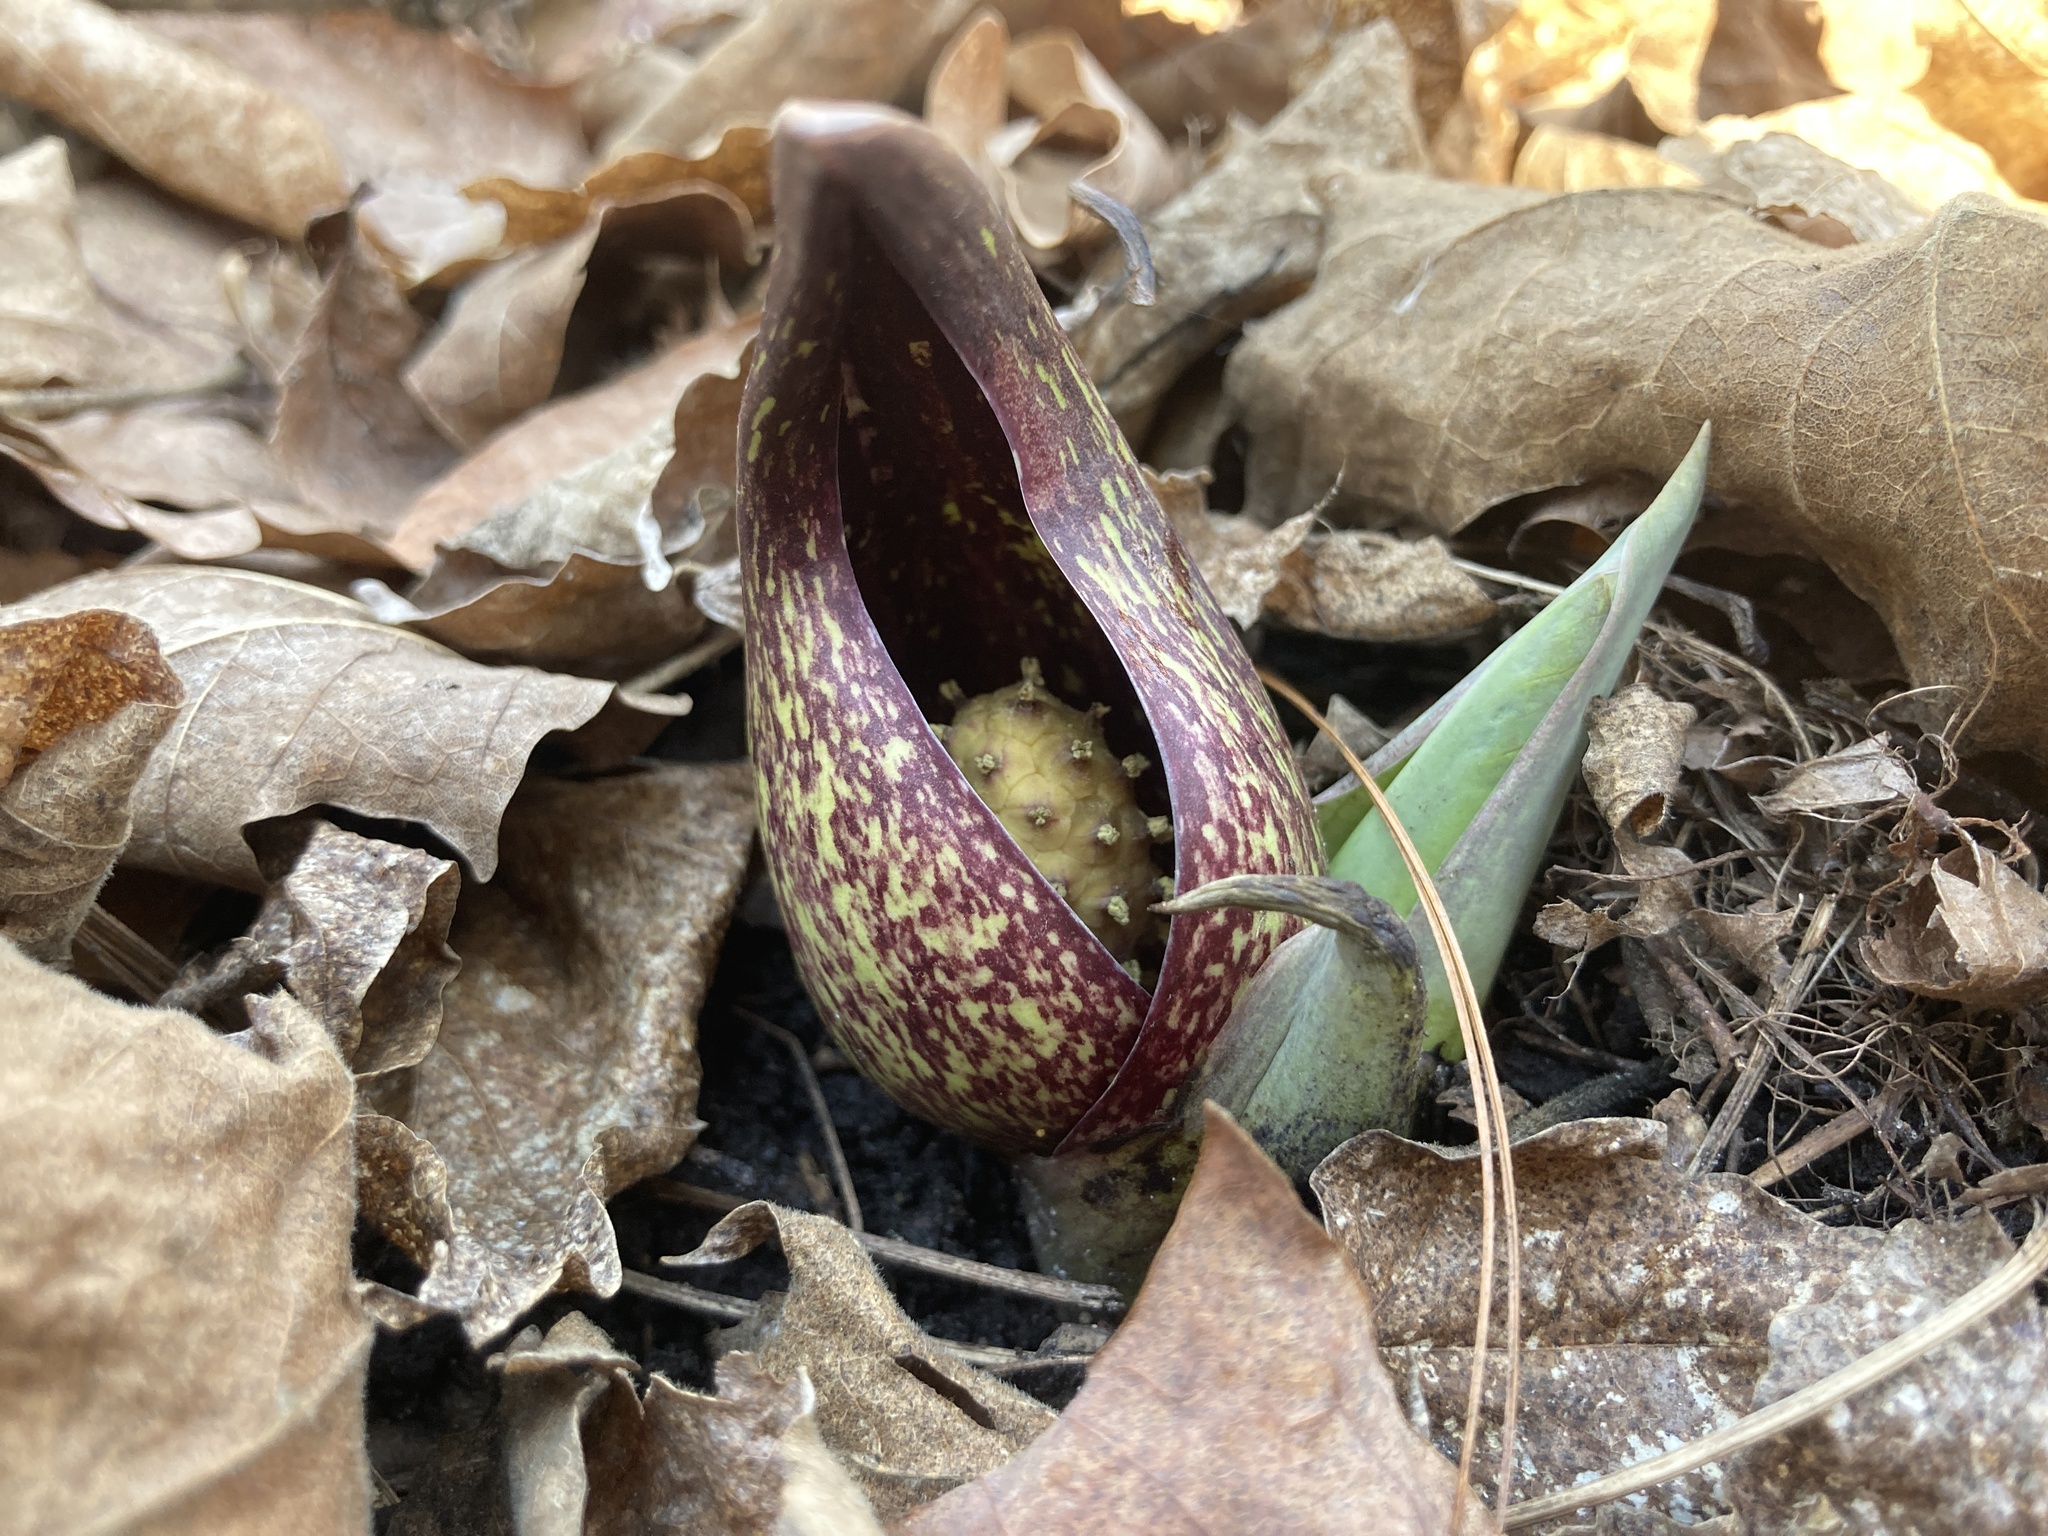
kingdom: Plantae
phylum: Tracheophyta
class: Liliopsida
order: Alismatales
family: Araceae
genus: Symplocarpus
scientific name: Symplocarpus foetidus
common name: Eastern skunk cabbage
